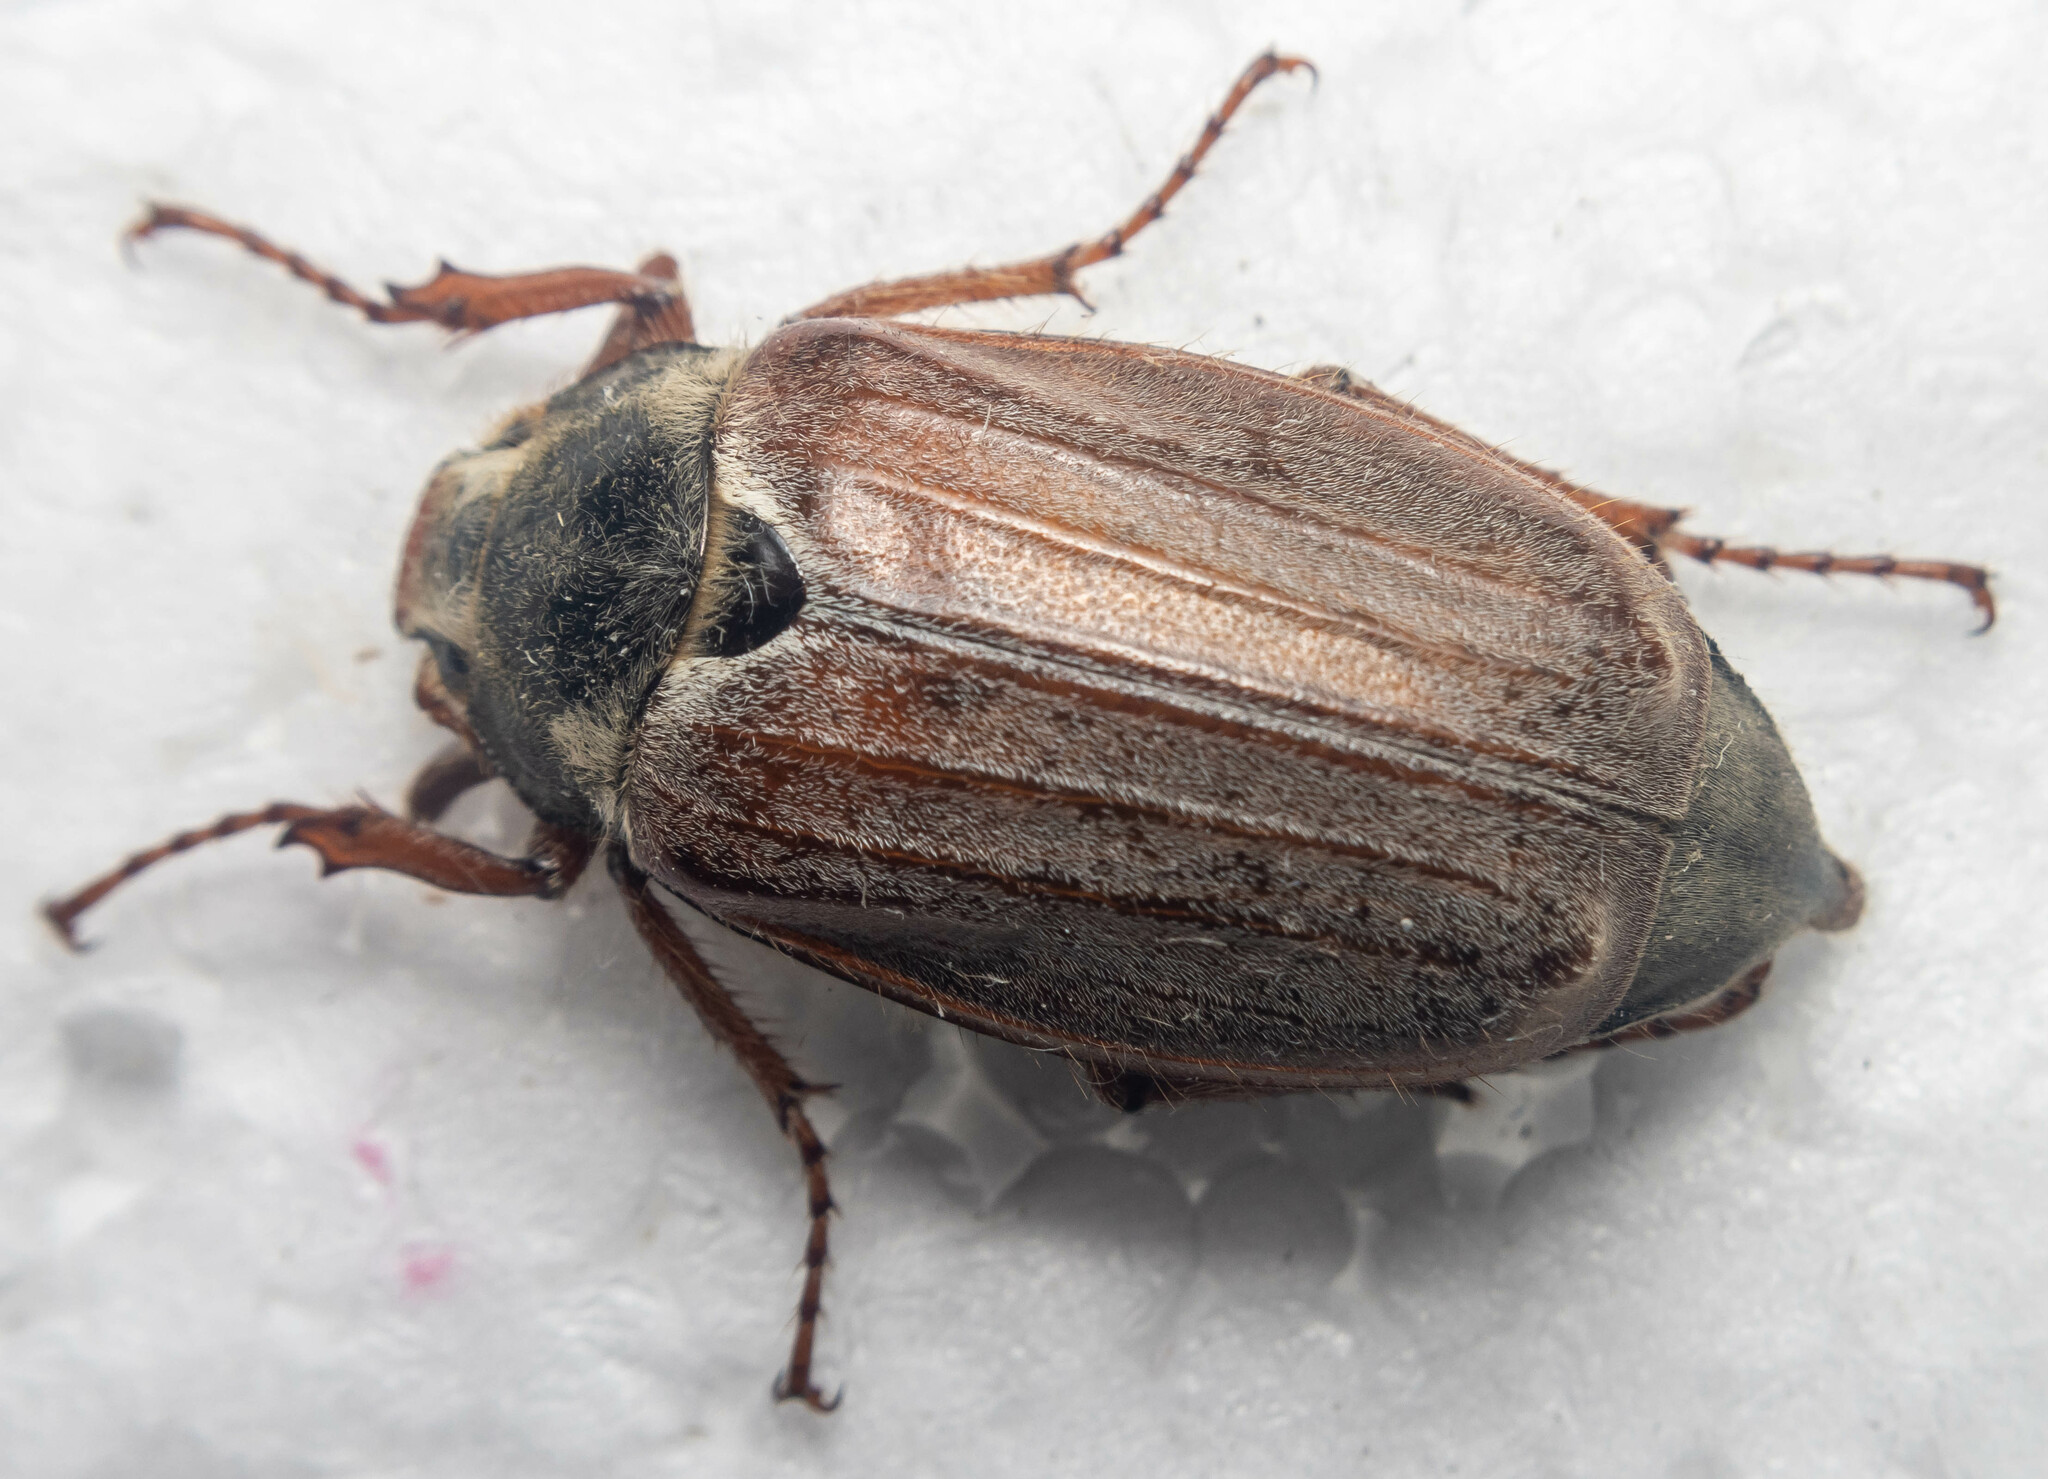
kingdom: Animalia
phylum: Arthropoda
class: Insecta
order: Coleoptera
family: Scarabaeidae
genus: Melolontha
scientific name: Melolontha melolontha
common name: Cockchafer maybeetle
